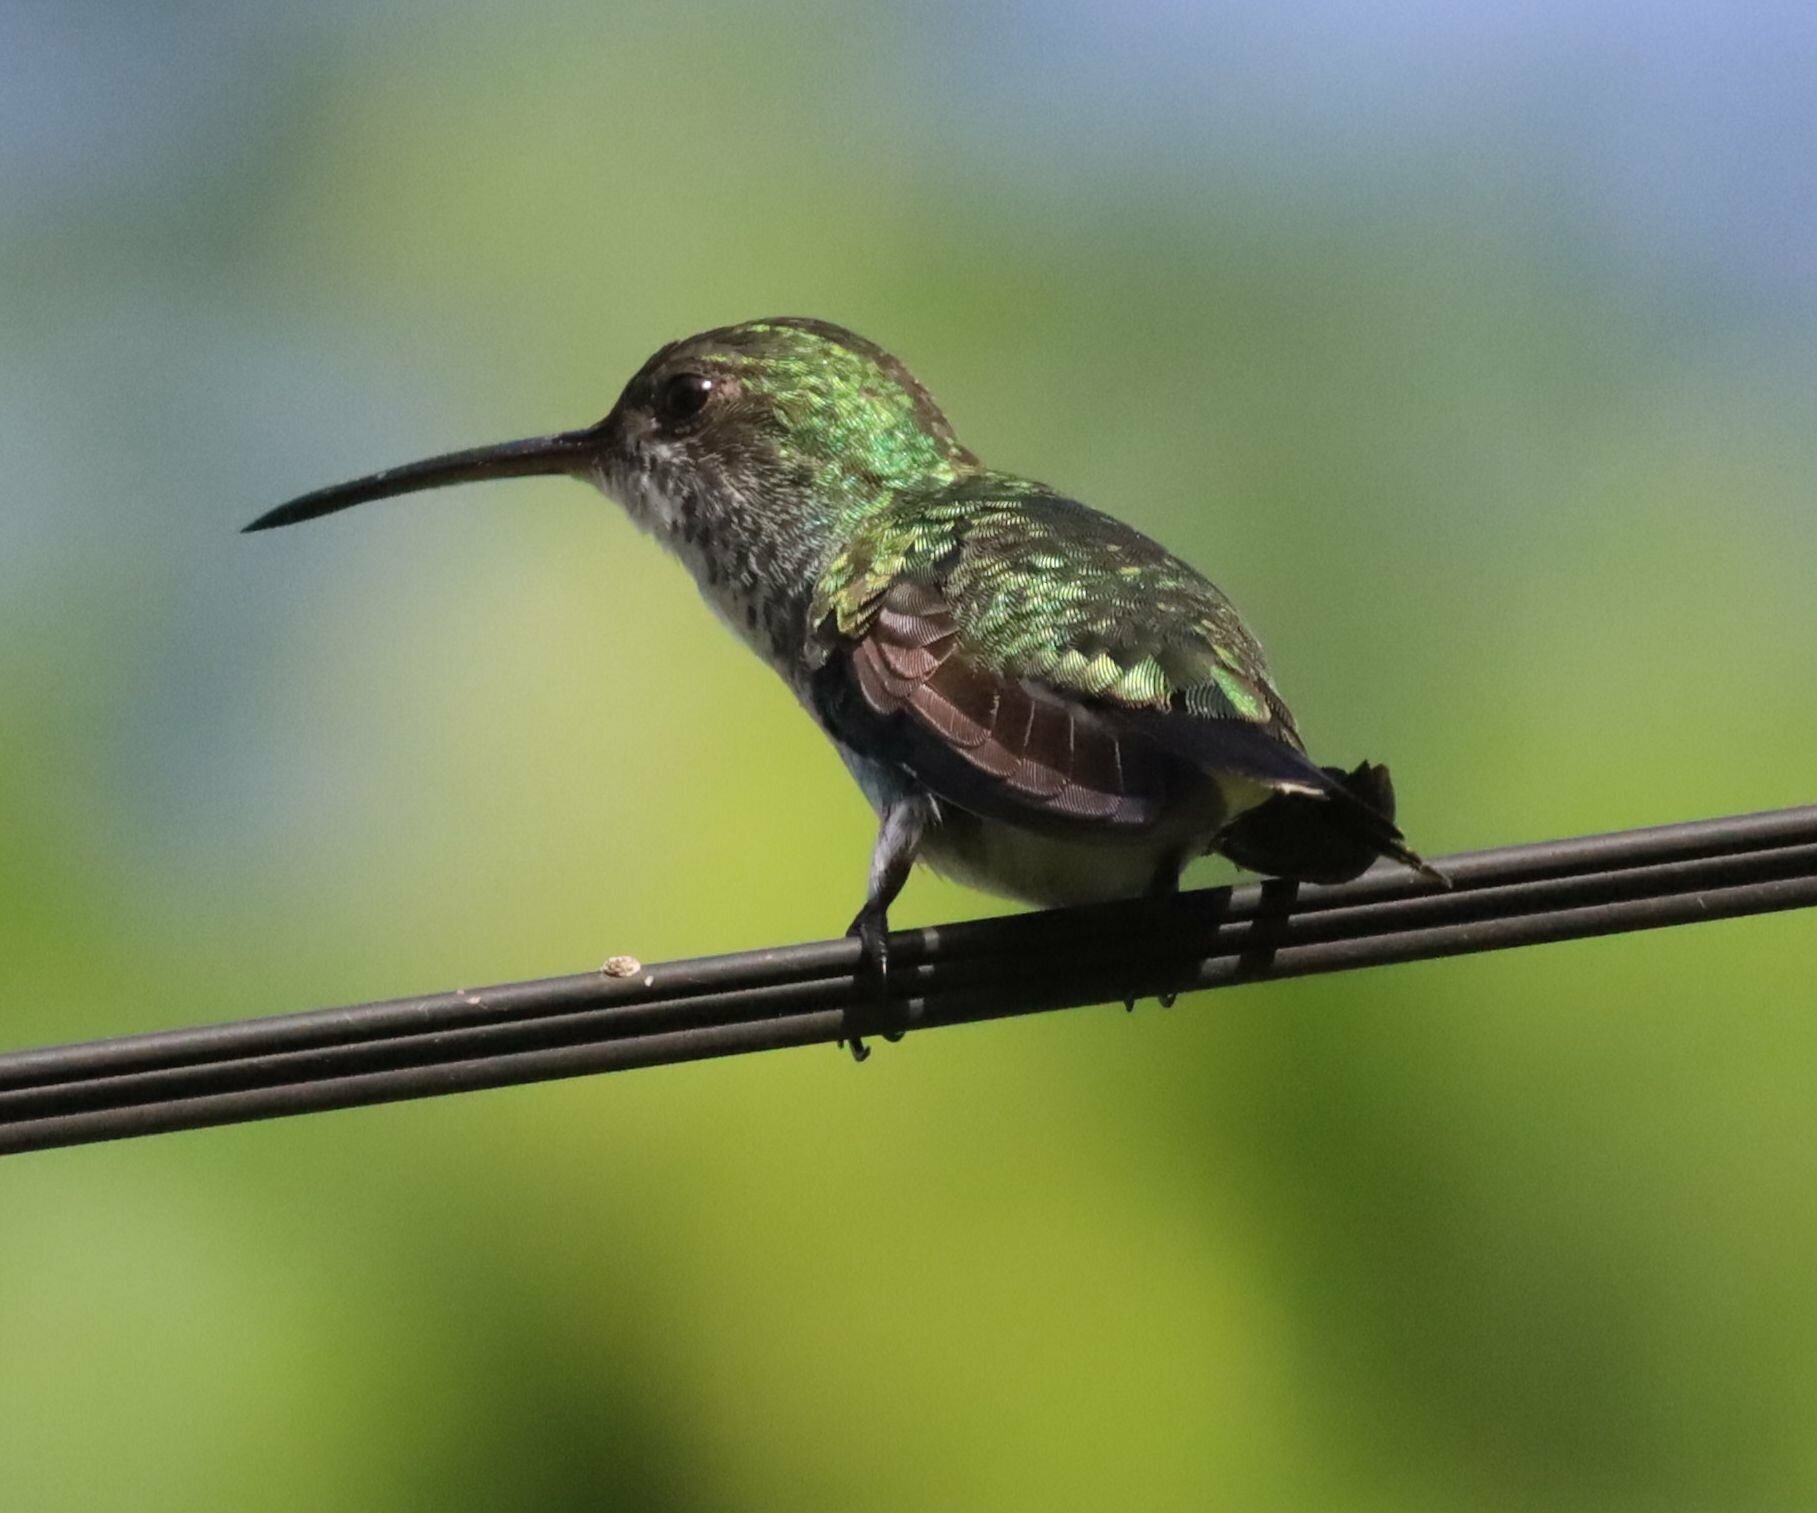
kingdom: Animalia
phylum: Chordata
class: Aves
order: Apodiformes
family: Trochilidae
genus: Chrysuronia
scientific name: Chrysuronia coeruleogularis
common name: Sapphire-throated hummingbird
